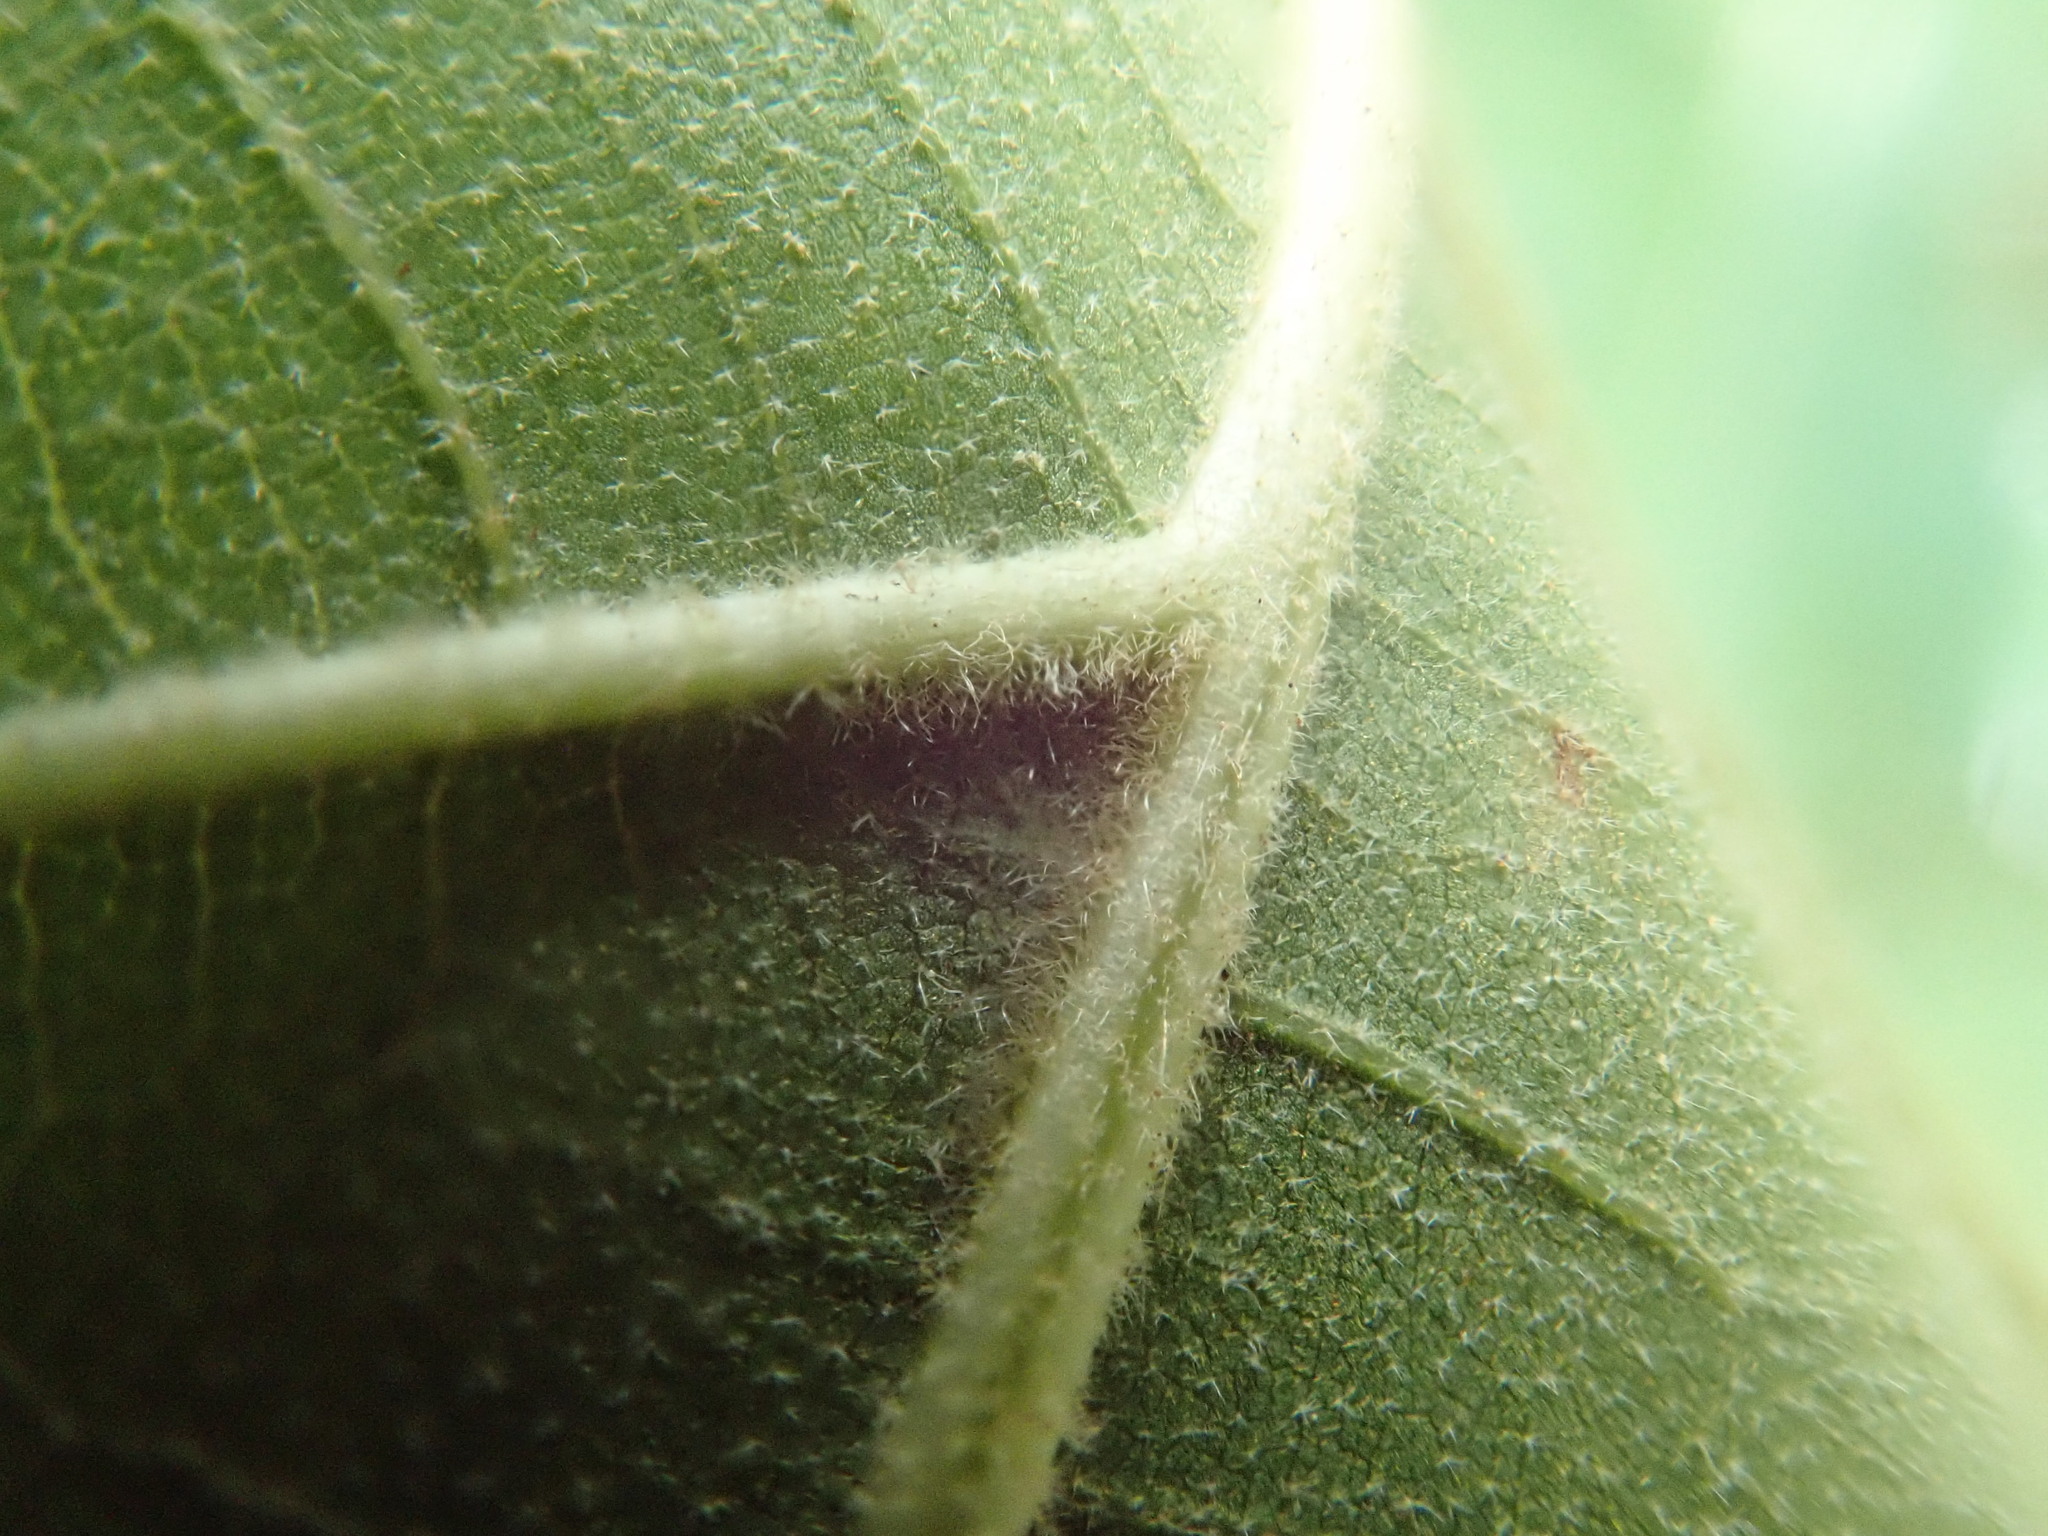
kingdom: Plantae
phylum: Tracheophyta
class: Magnoliopsida
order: Fagales
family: Fagaceae
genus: Quercus
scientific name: Quercus velutina
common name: Black oak
